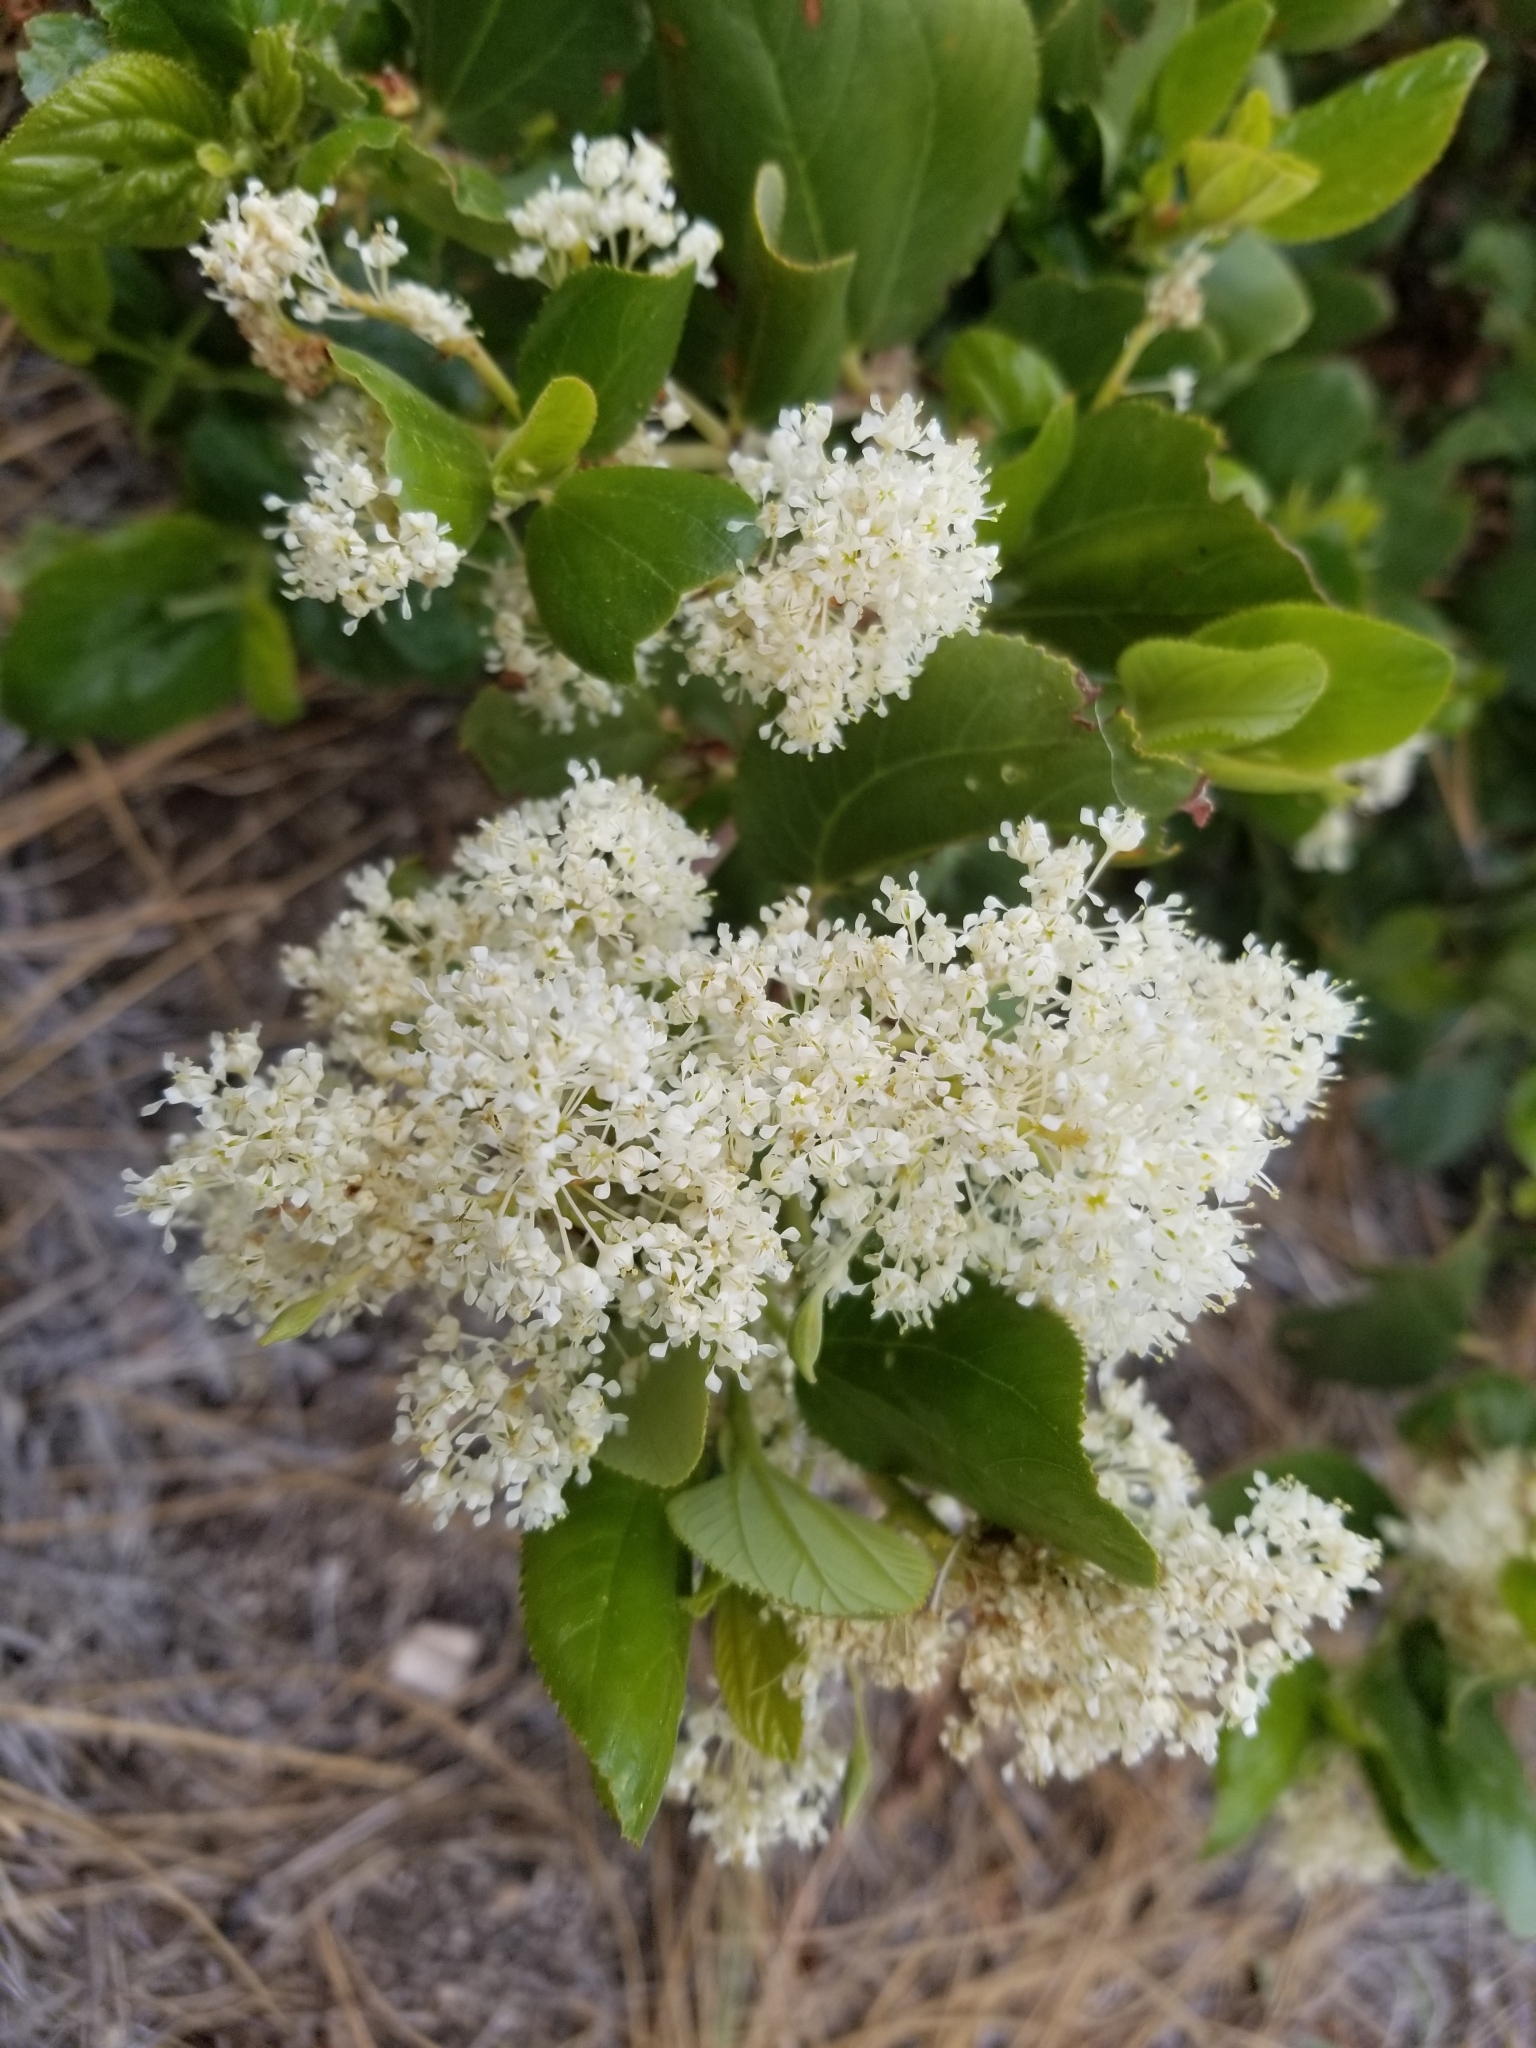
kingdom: Plantae
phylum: Tracheophyta
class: Magnoliopsida
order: Rosales
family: Rhamnaceae
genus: Ceanothus
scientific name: Ceanothus velutinus
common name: Snowbrush
